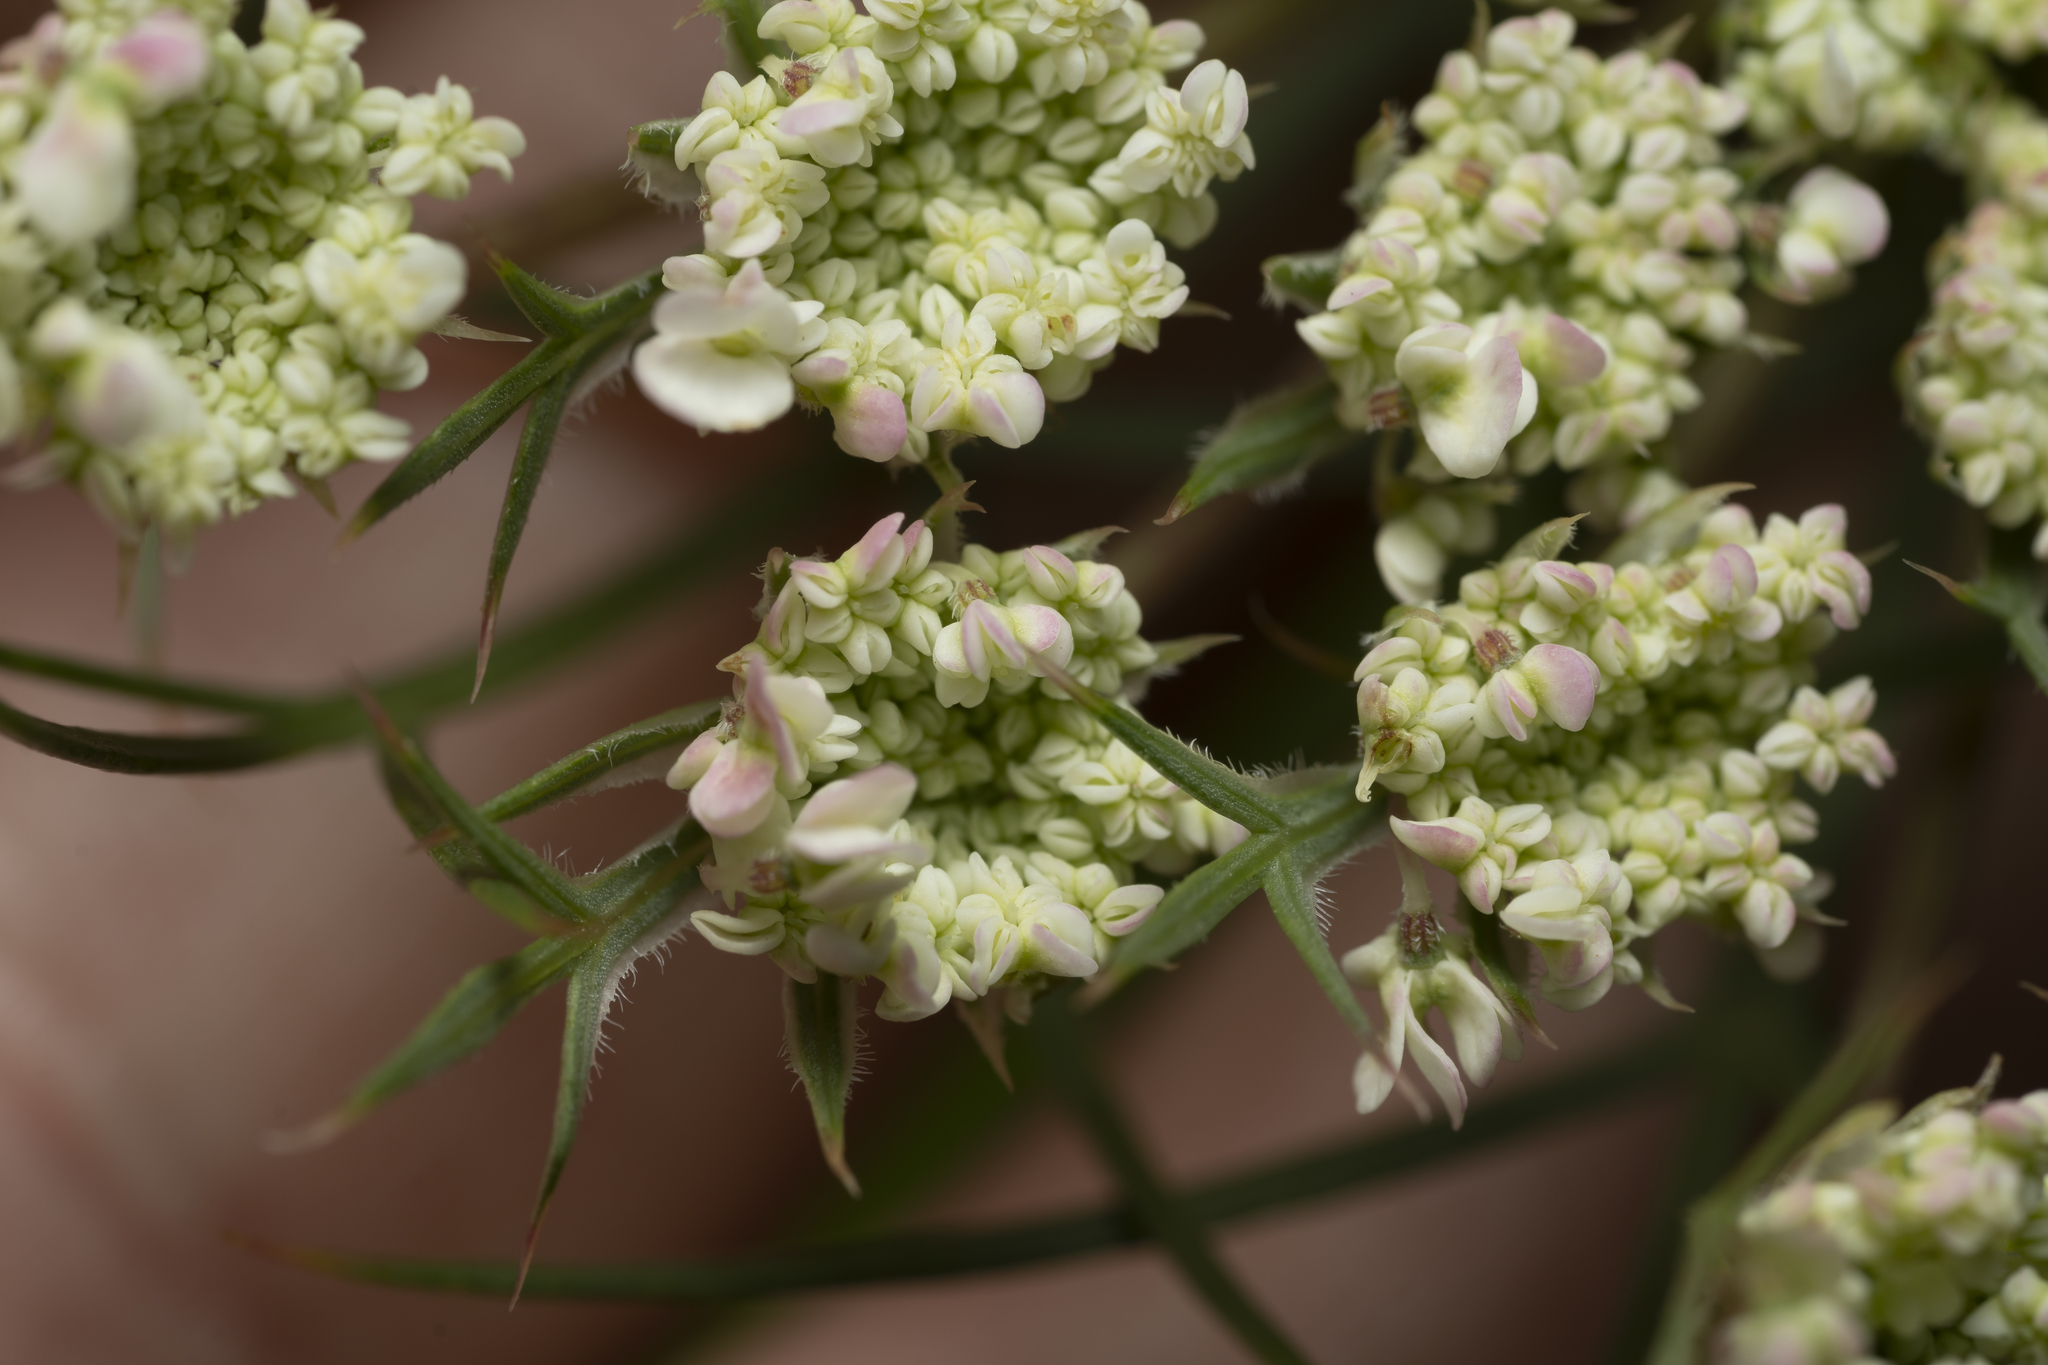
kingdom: Plantae
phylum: Tracheophyta
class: Magnoliopsida
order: Apiales
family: Apiaceae
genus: Daucus
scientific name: Daucus carota
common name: Wild carrot
